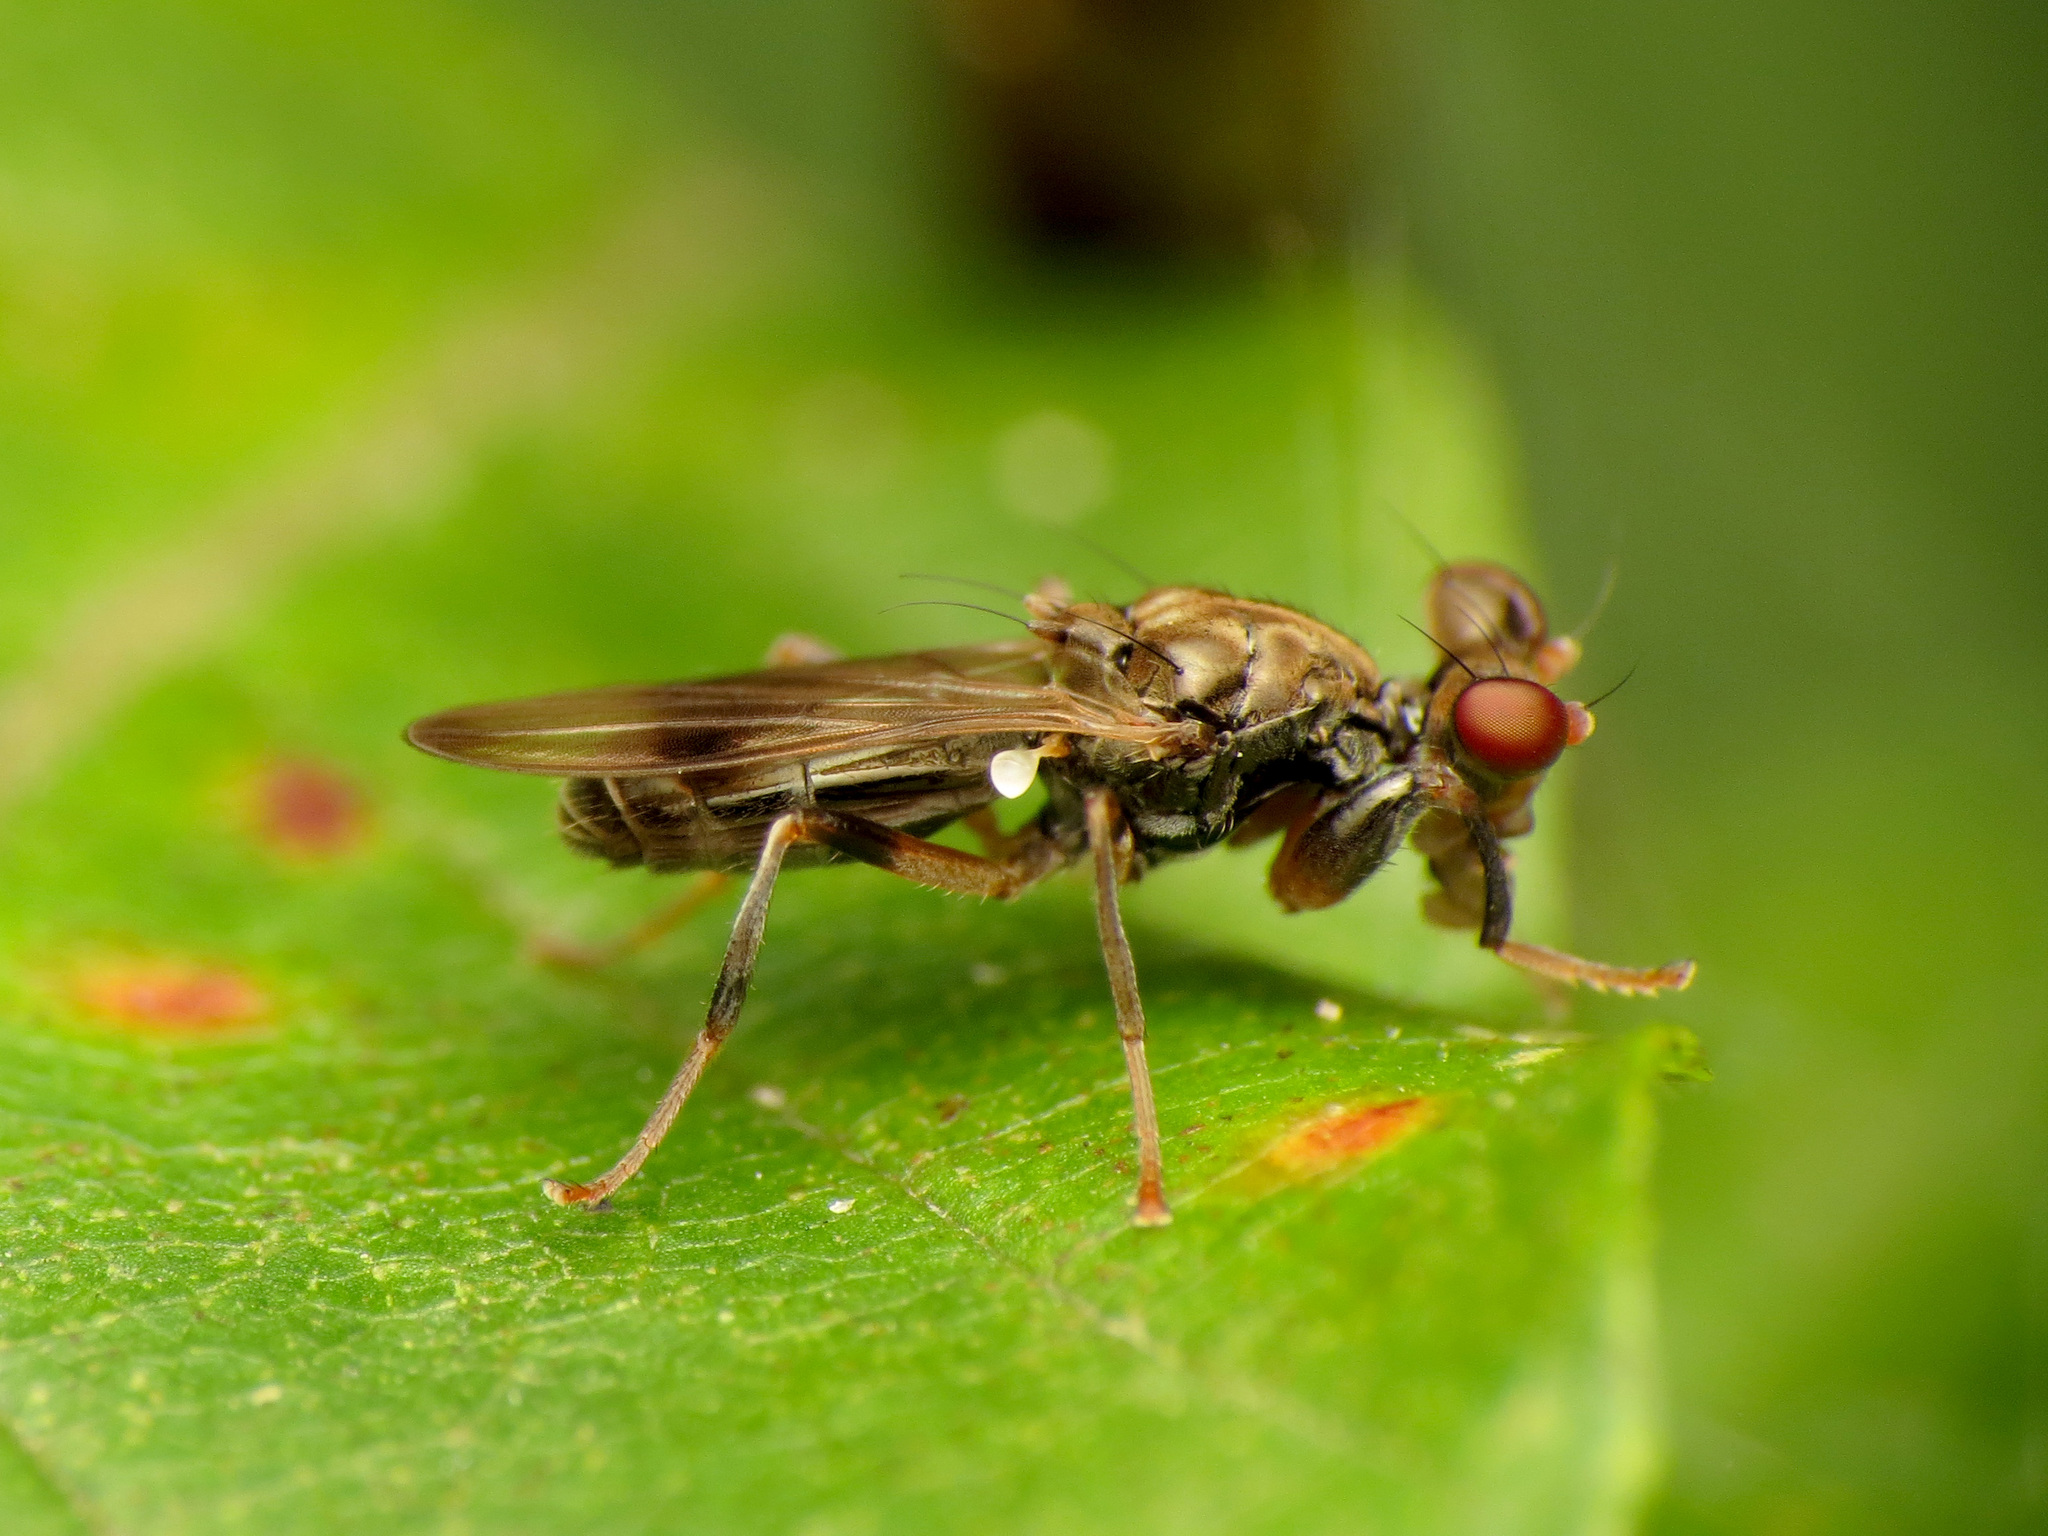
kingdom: Animalia
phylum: Arthropoda
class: Insecta
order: Diptera
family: Diopsidae
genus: Sphyracephala
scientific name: Sphyracephala brevicornis
